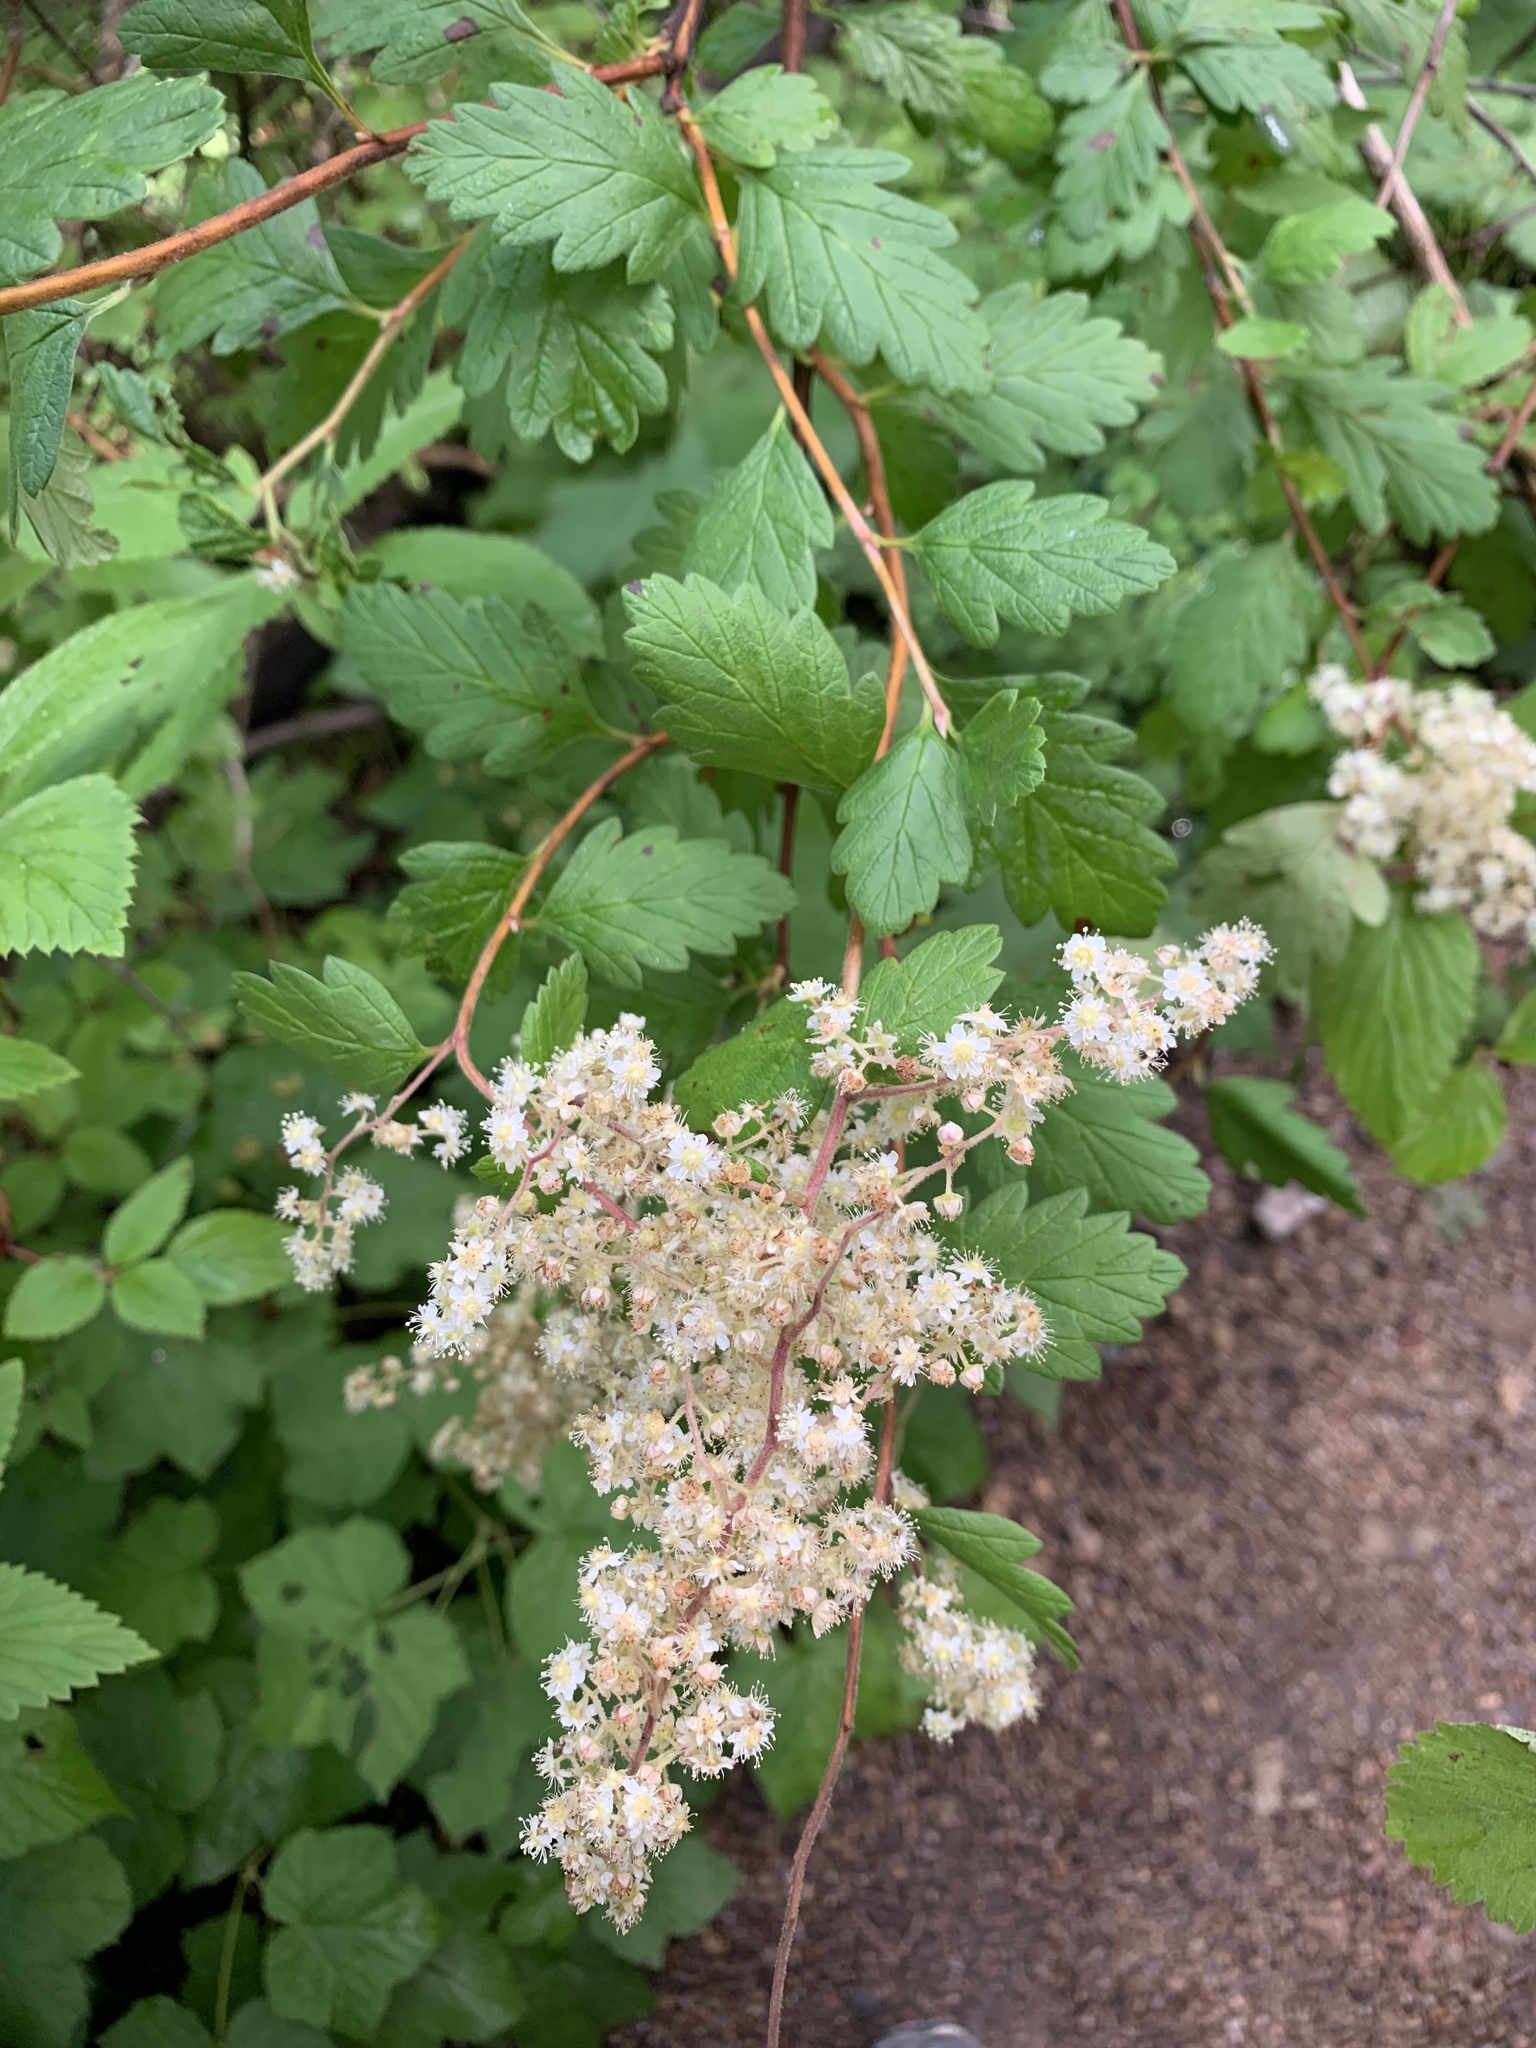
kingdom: Plantae
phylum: Tracheophyta
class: Magnoliopsida
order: Rosales
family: Rosaceae
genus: Holodiscus
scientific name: Holodiscus discolor
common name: Oceanspray
